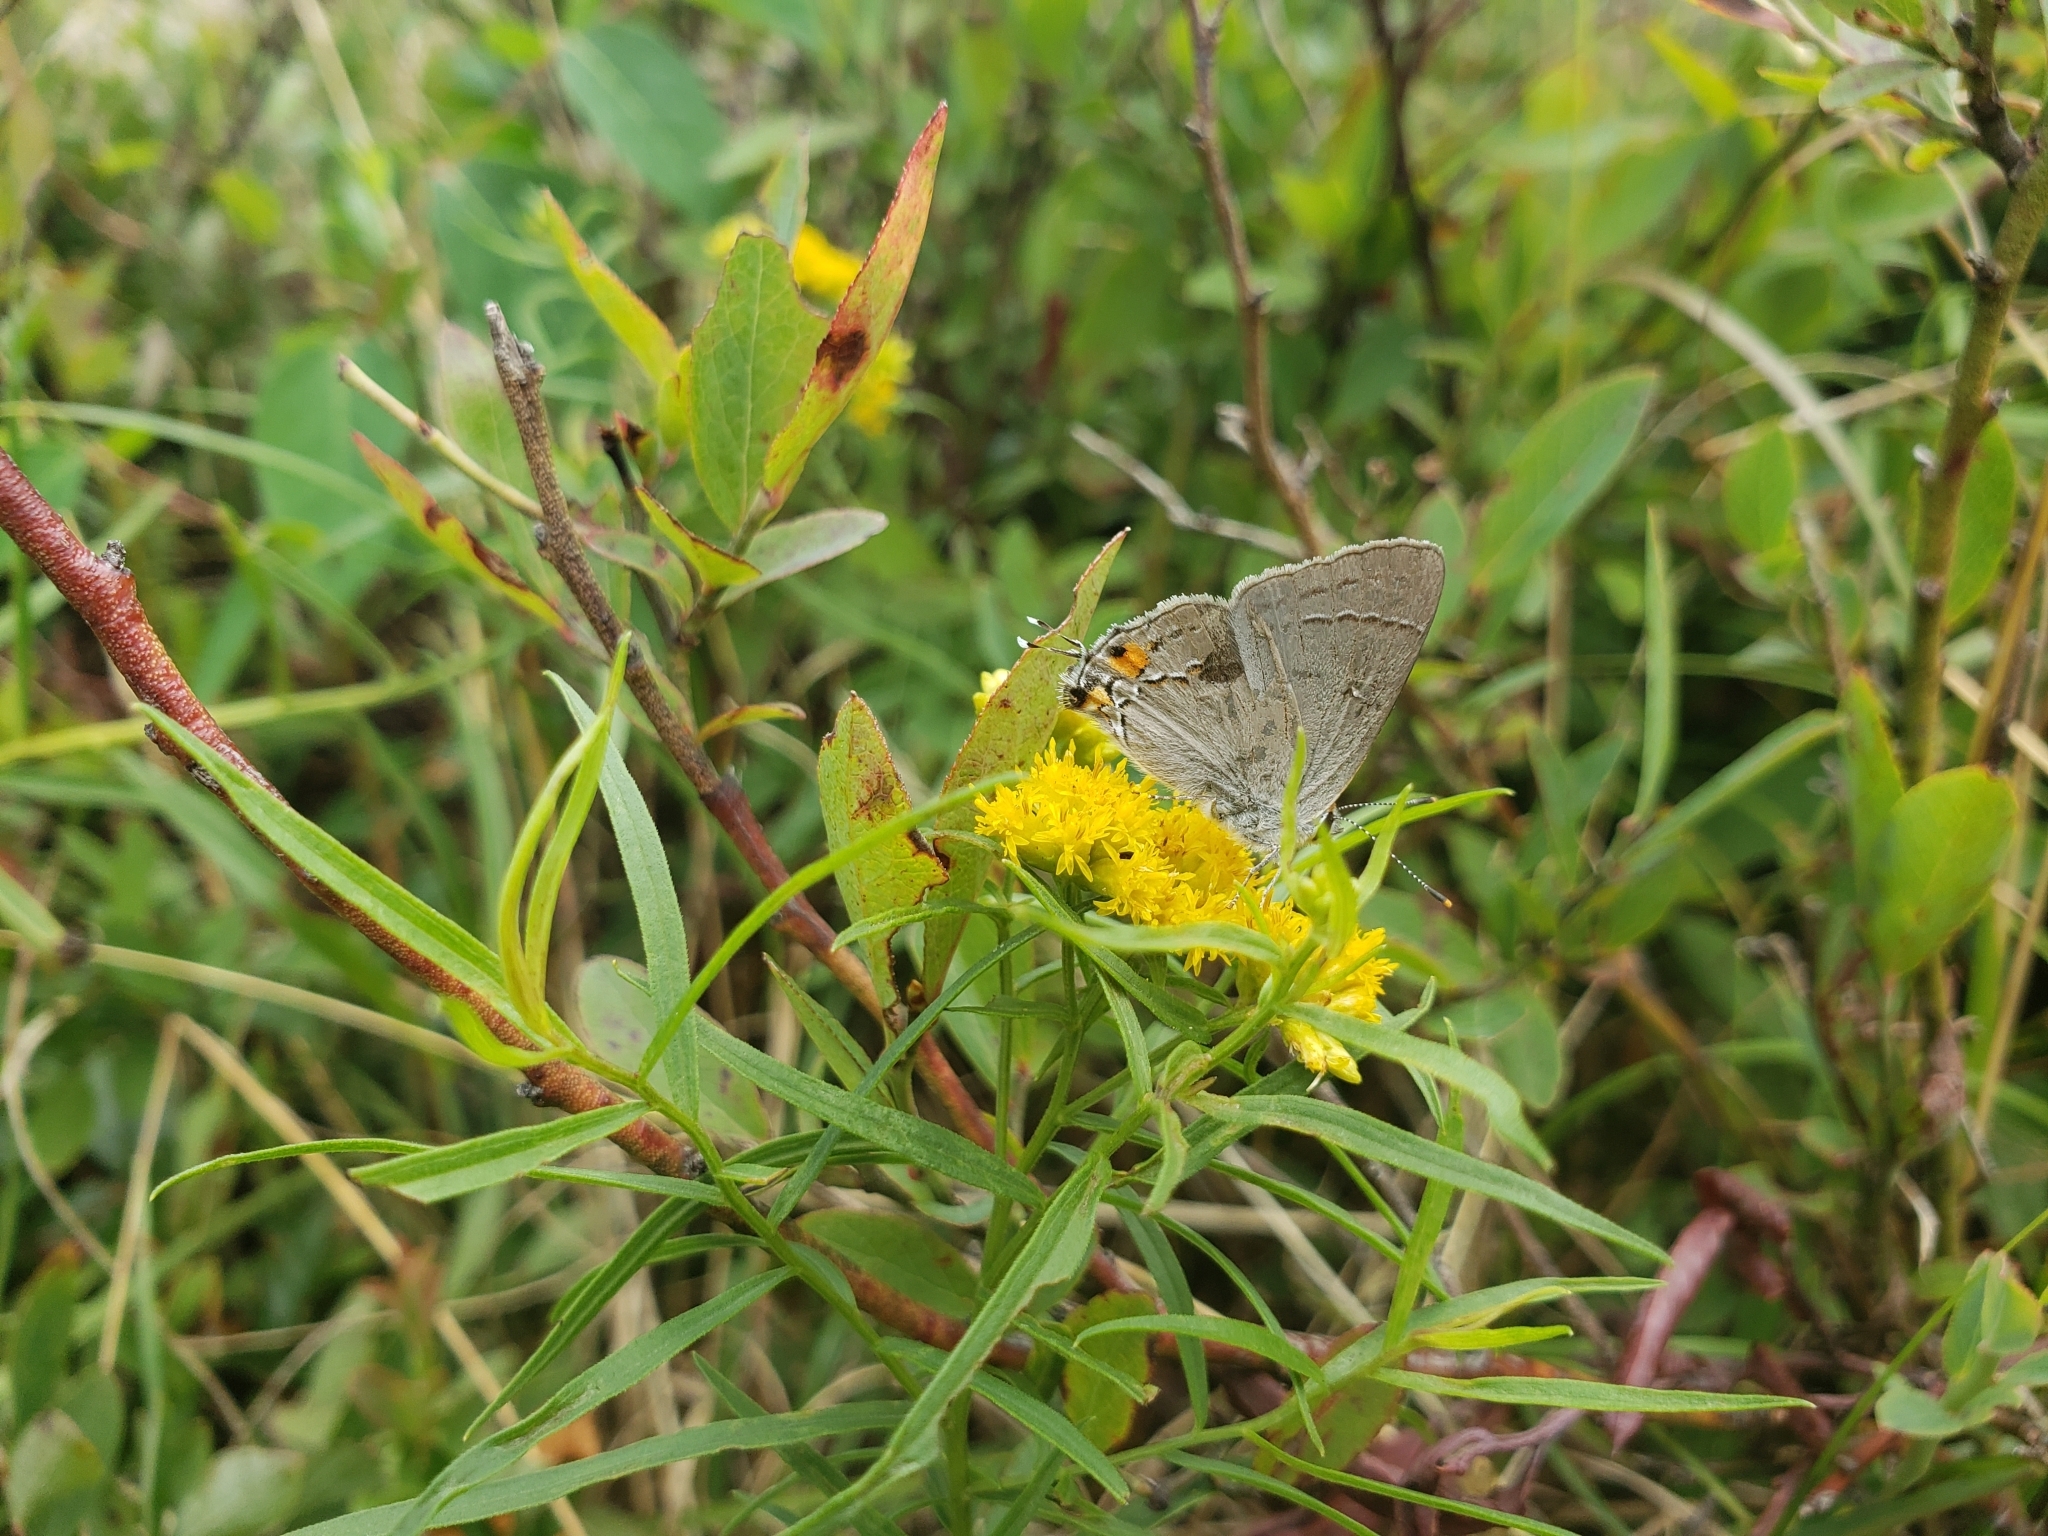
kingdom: Animalia
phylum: Arthropoda
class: Insecta
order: Lepidoptera
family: Lycaenidae
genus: Strymon
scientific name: Strymon melinus
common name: Gray hairstreak
